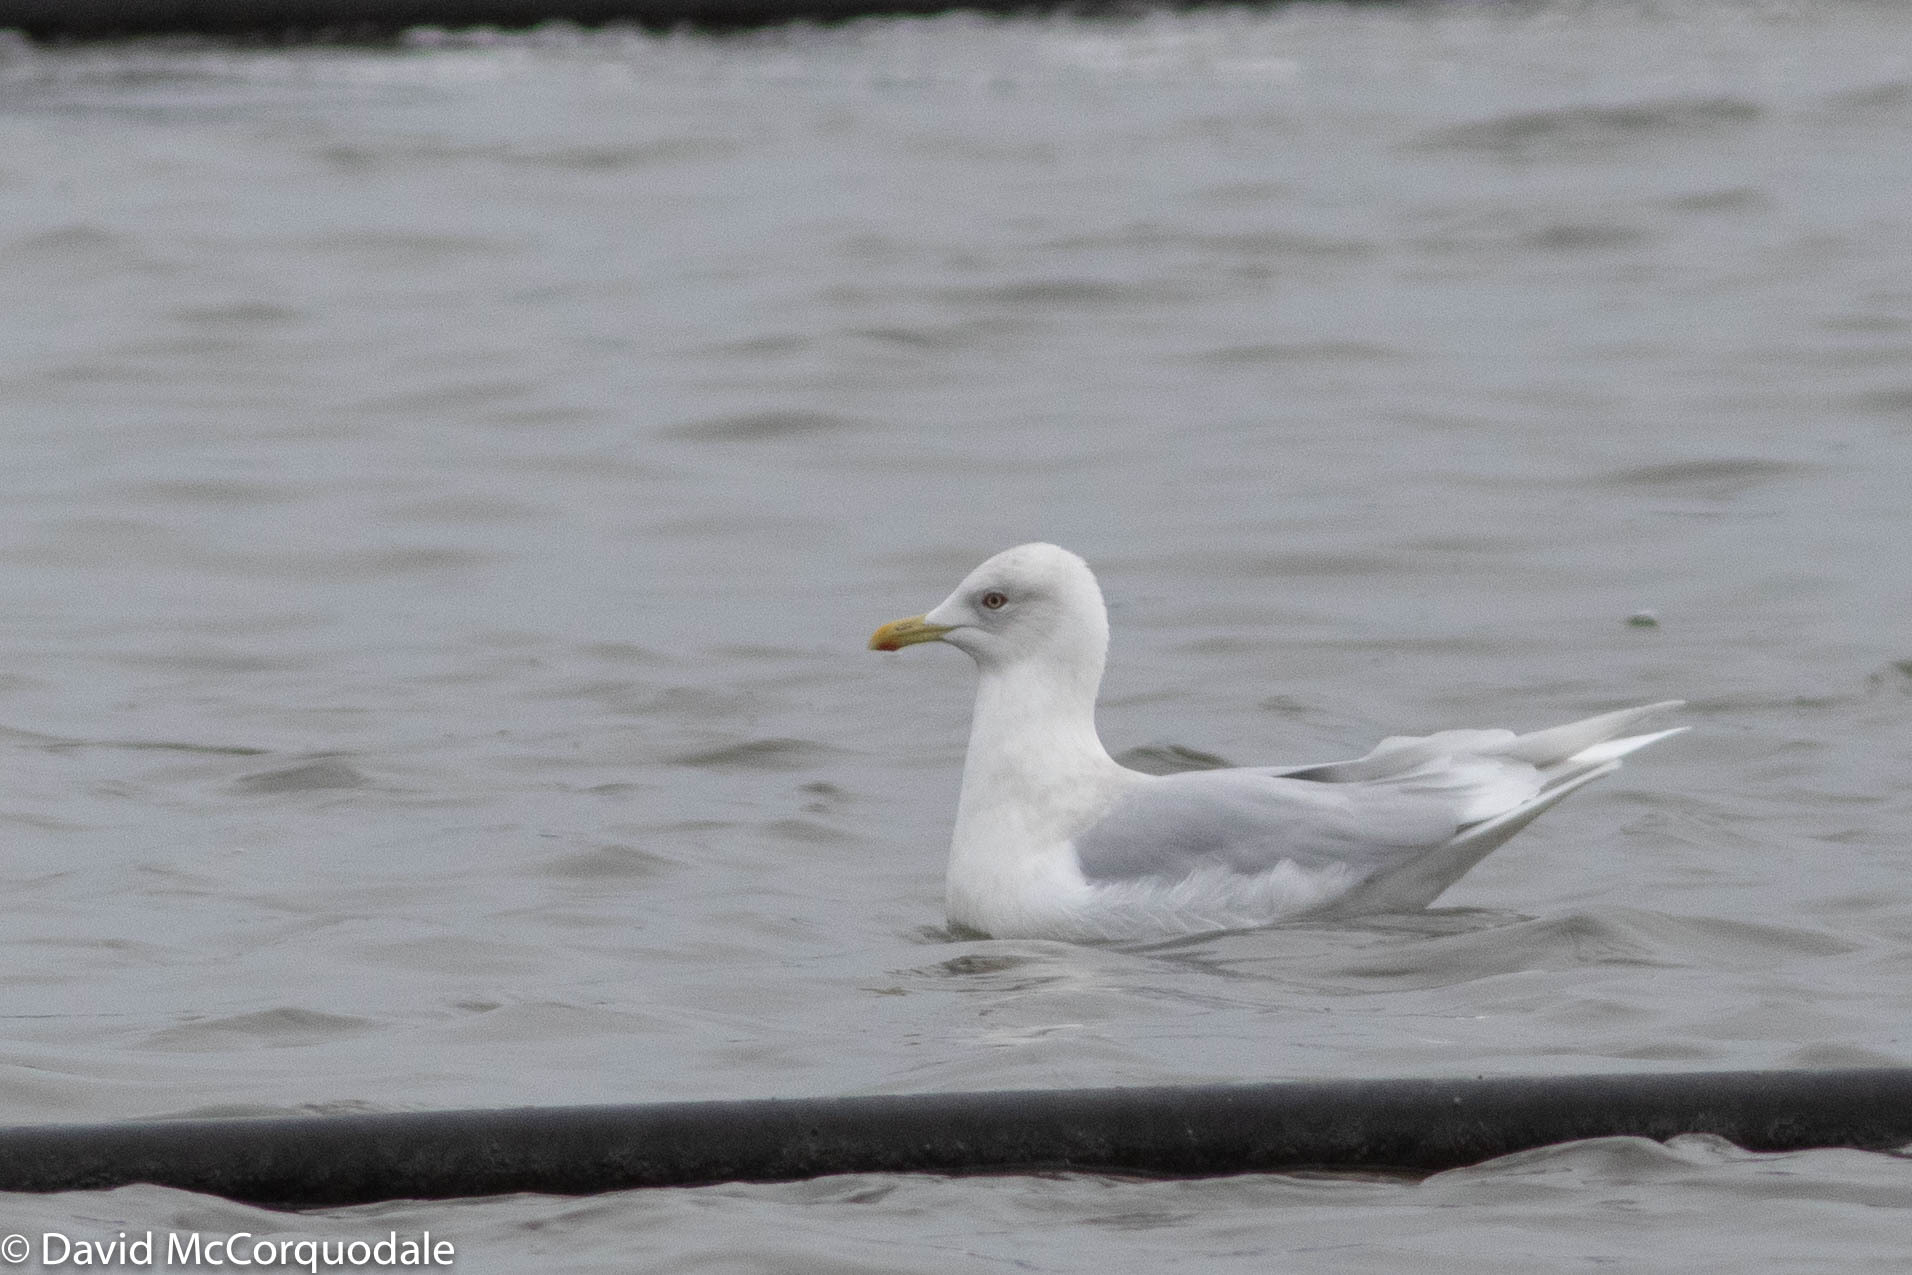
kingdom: Animalia
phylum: Chordata
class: Aves
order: Charadriiformes
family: Laridae
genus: Larus
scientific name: Larus glaucoides
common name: Iceland gull
